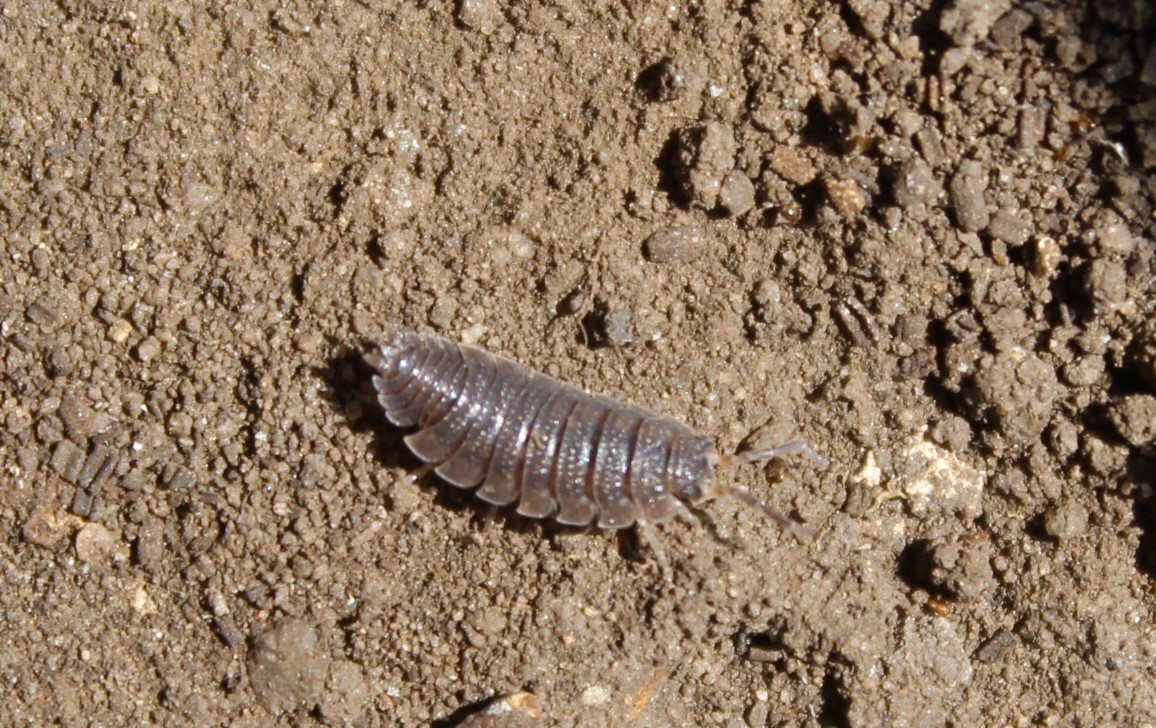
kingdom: Animalia
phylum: Arthropoda
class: Malacostraca
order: Isopoda
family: Porcellionidae
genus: Porcellio
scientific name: Porcellio scaber
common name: Common rough woodlouse
